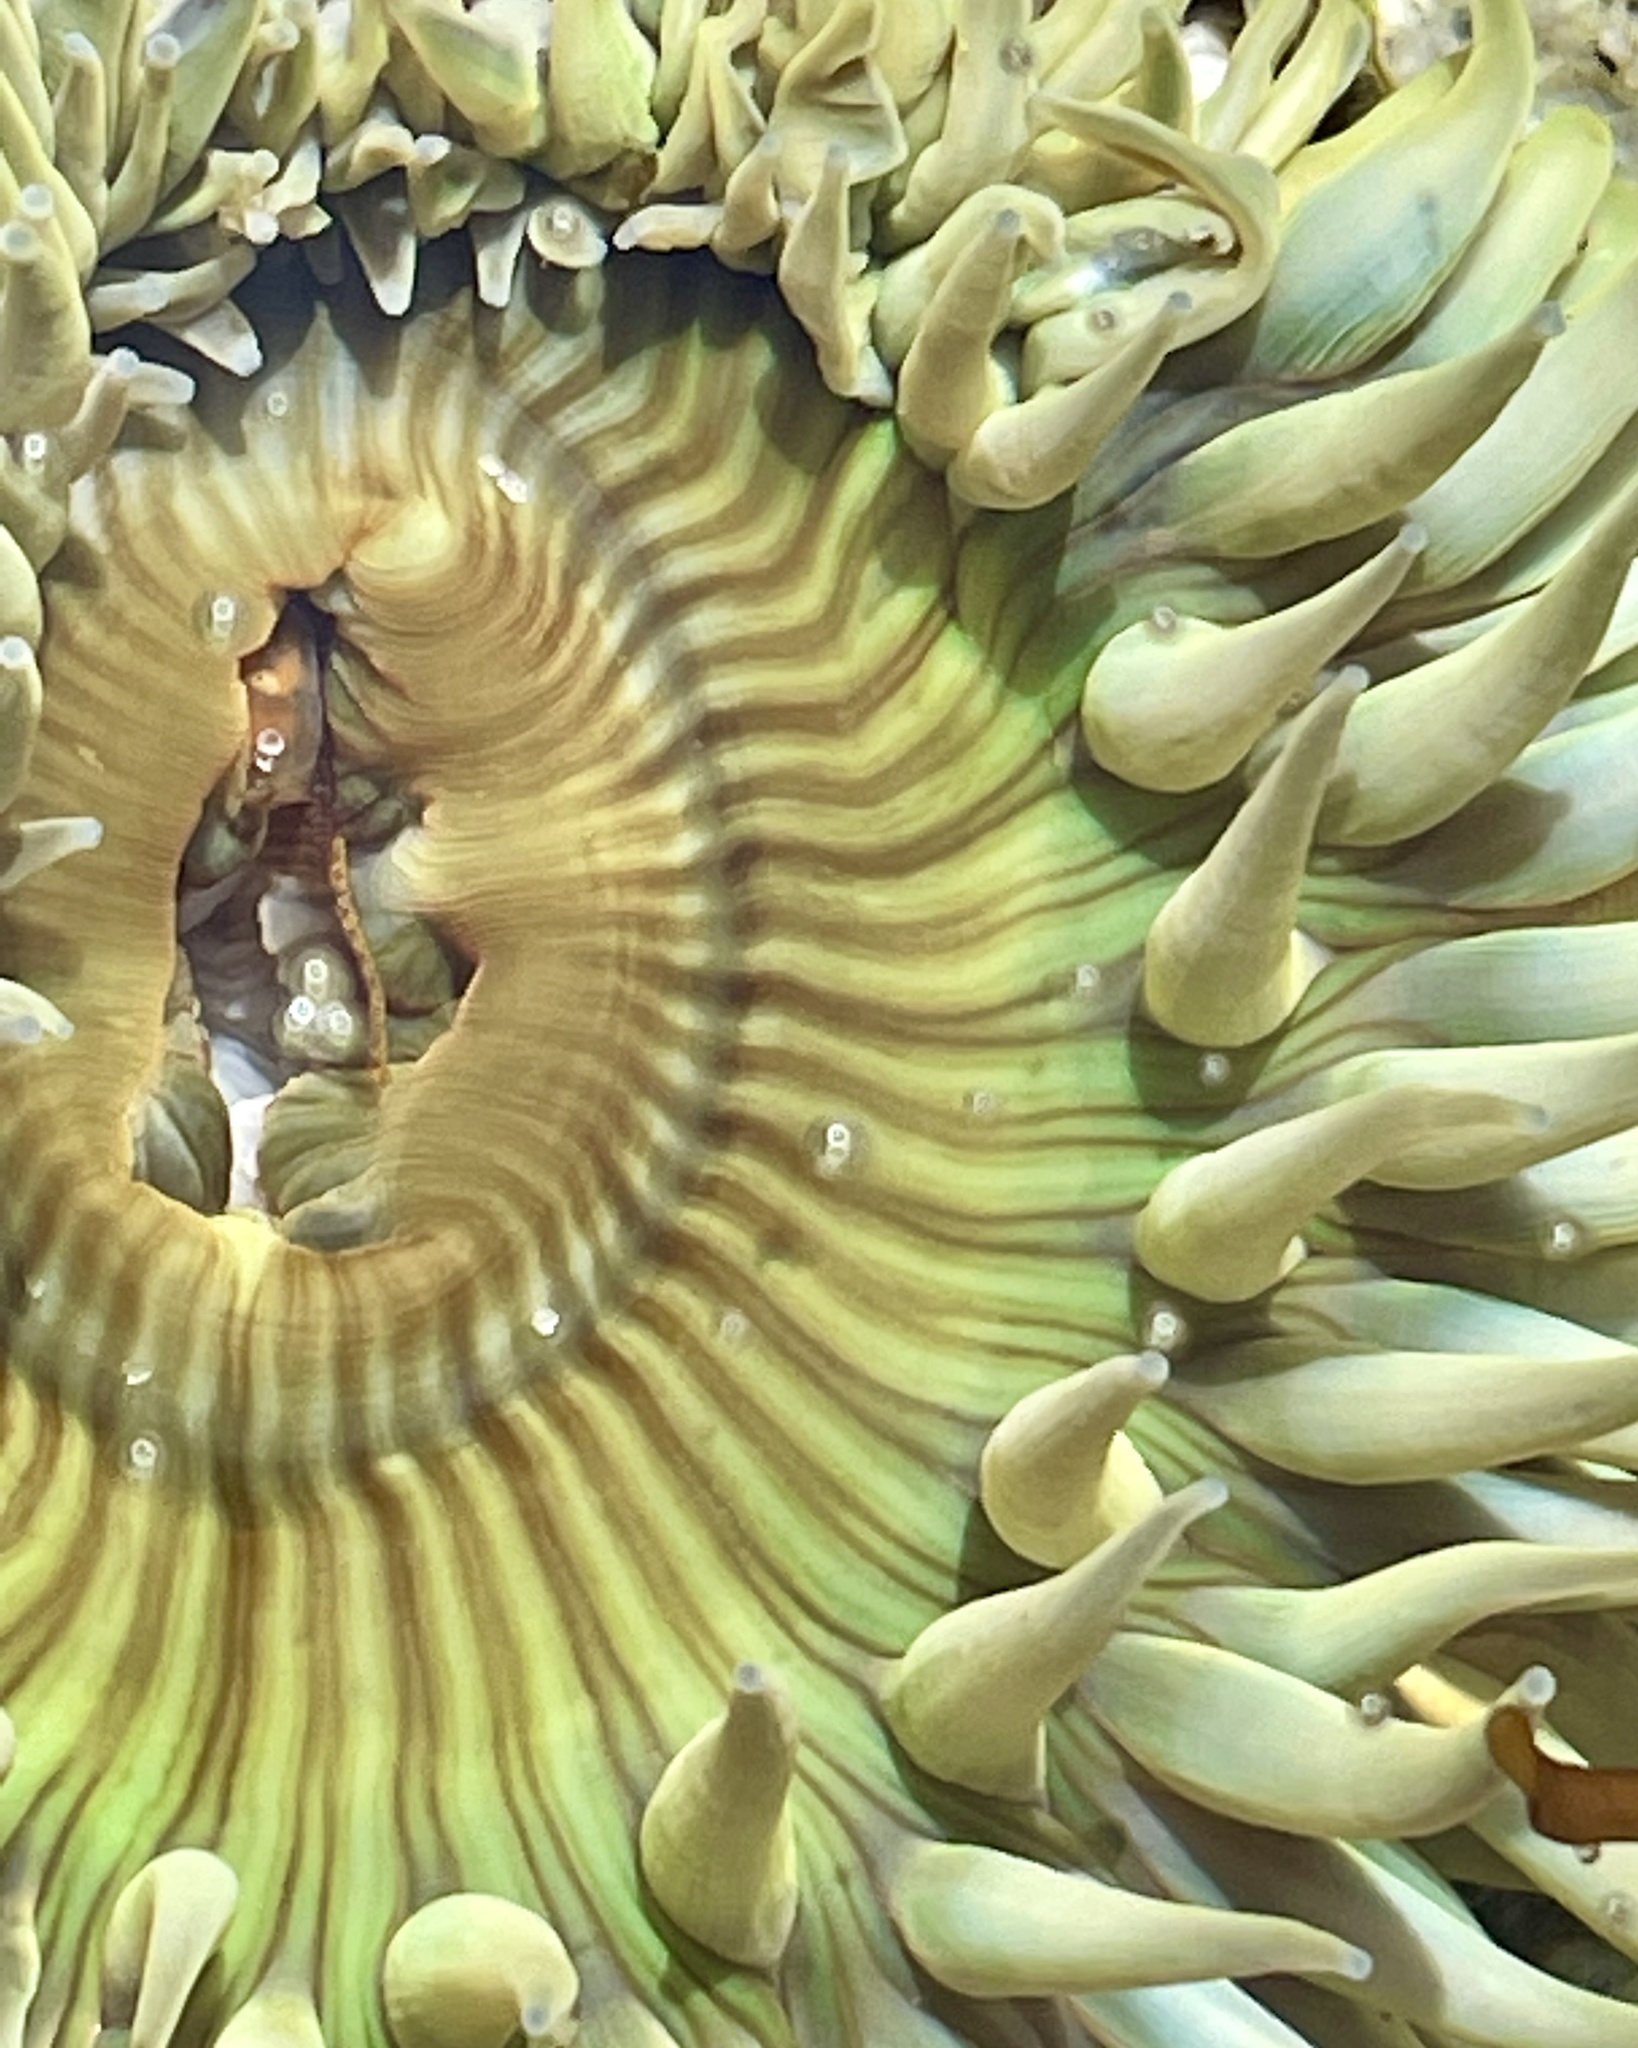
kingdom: Animalia
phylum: Cnidaria
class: Anthozoa
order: Actiniaria
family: Actiniidae
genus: Anthopleura
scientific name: Anthopleura sola
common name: Sun anemone
